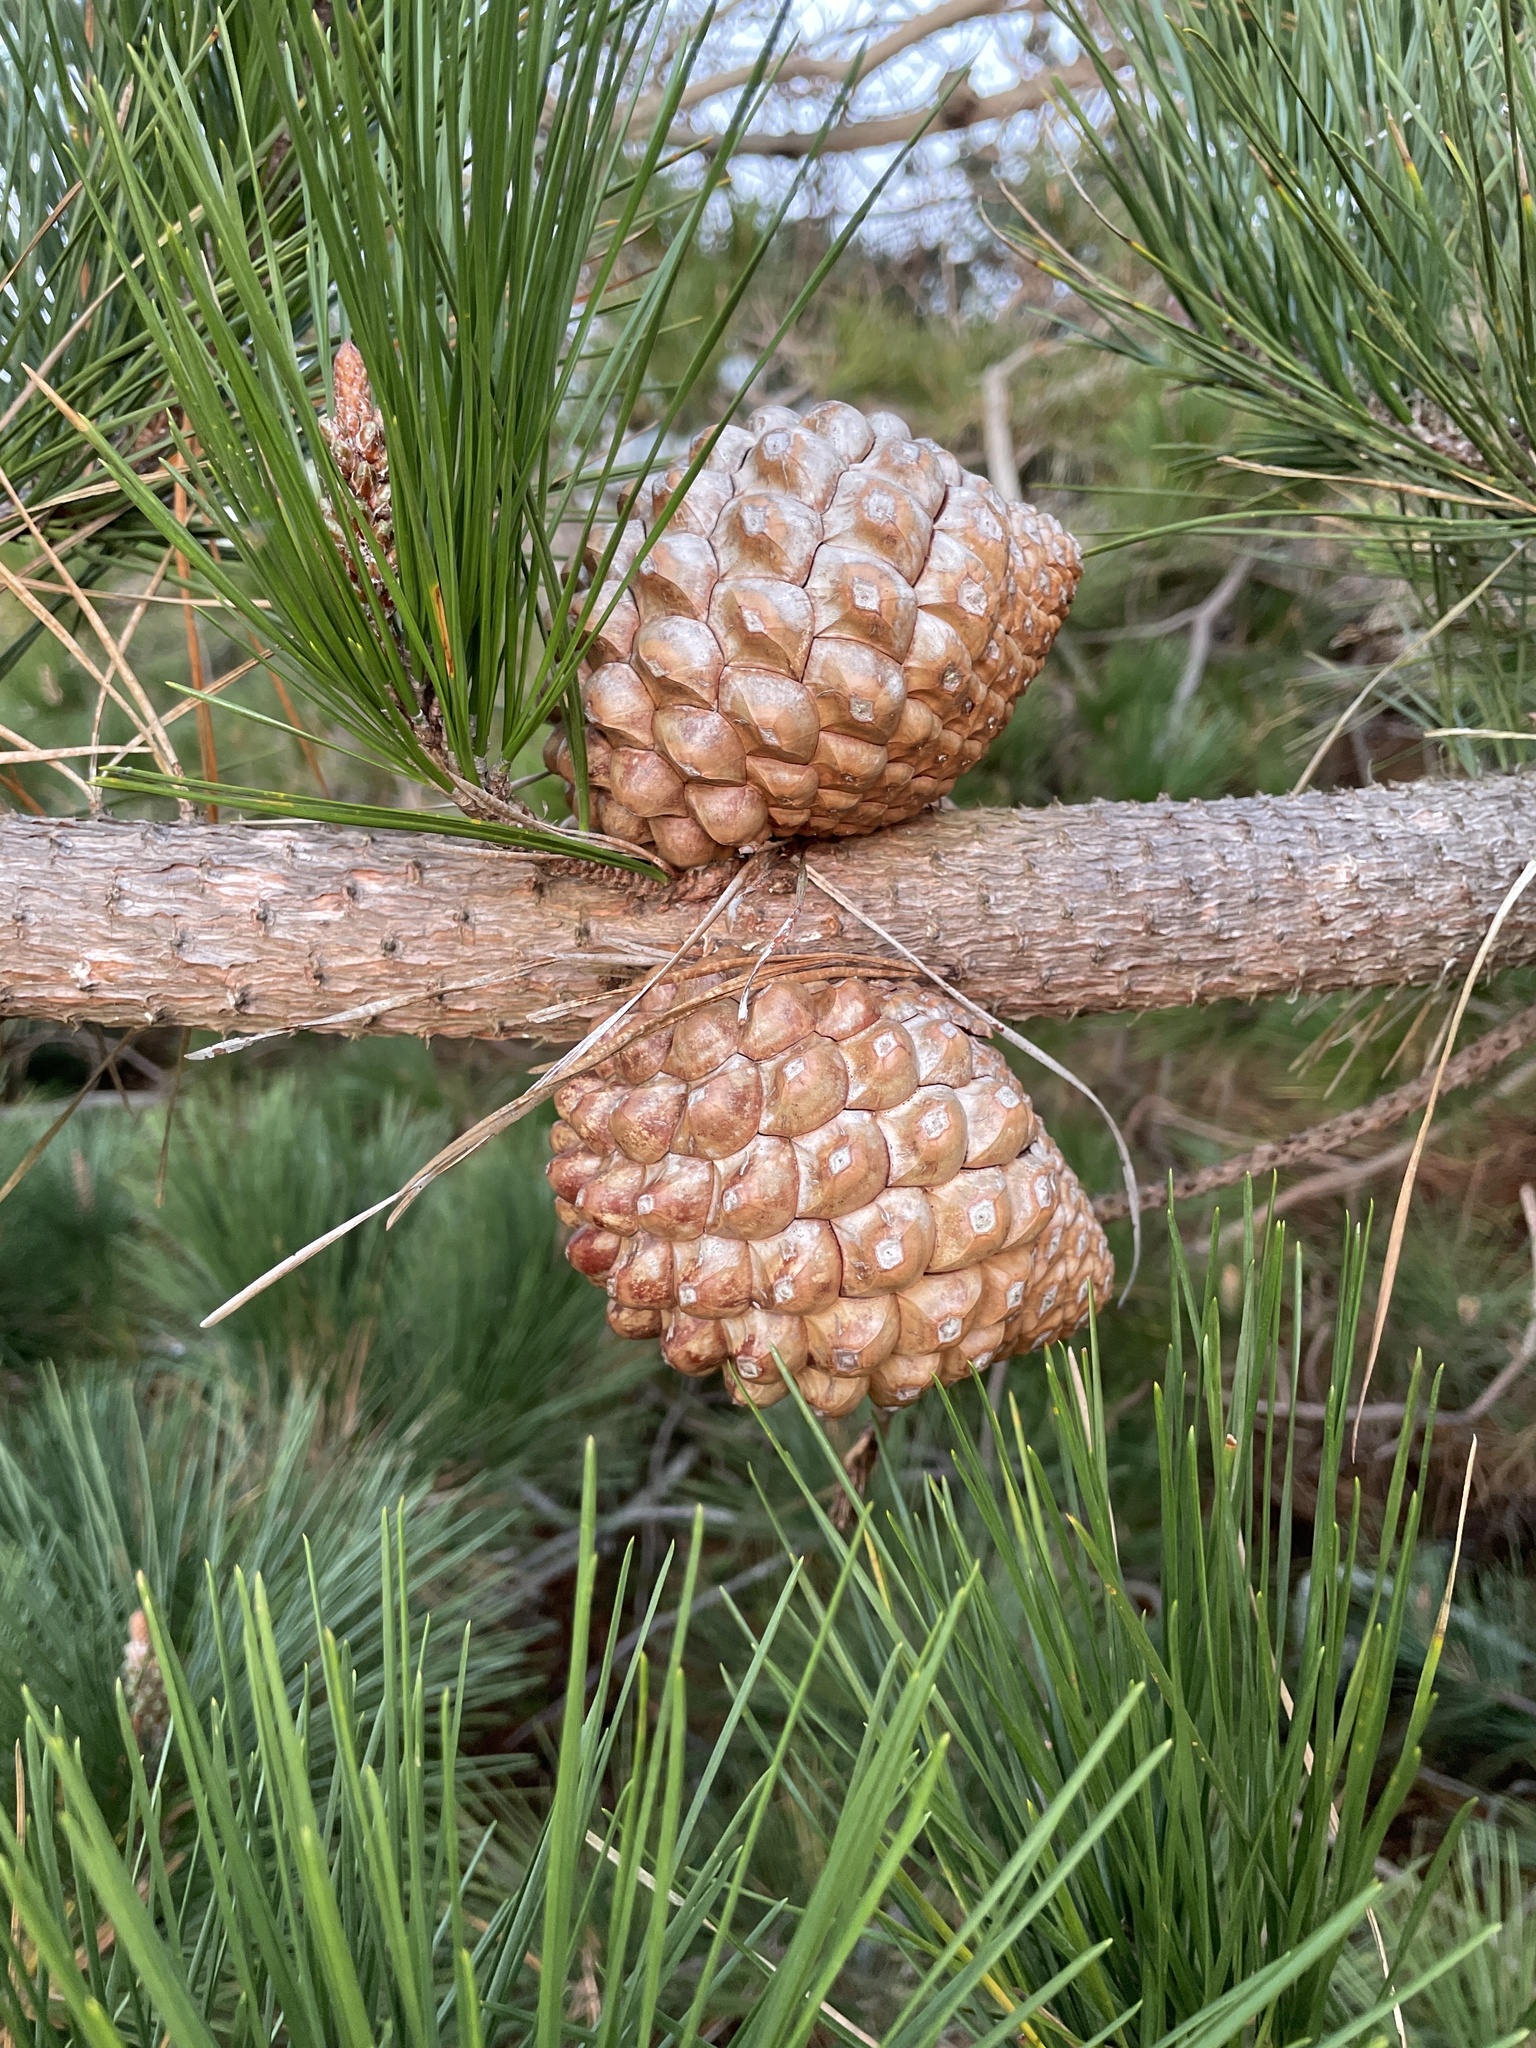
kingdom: Plantae
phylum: Tracheophyta
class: Pinopsida
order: Pinales
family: Pinaceae
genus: Pinus
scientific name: Pinus radiata
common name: Monterey pine
